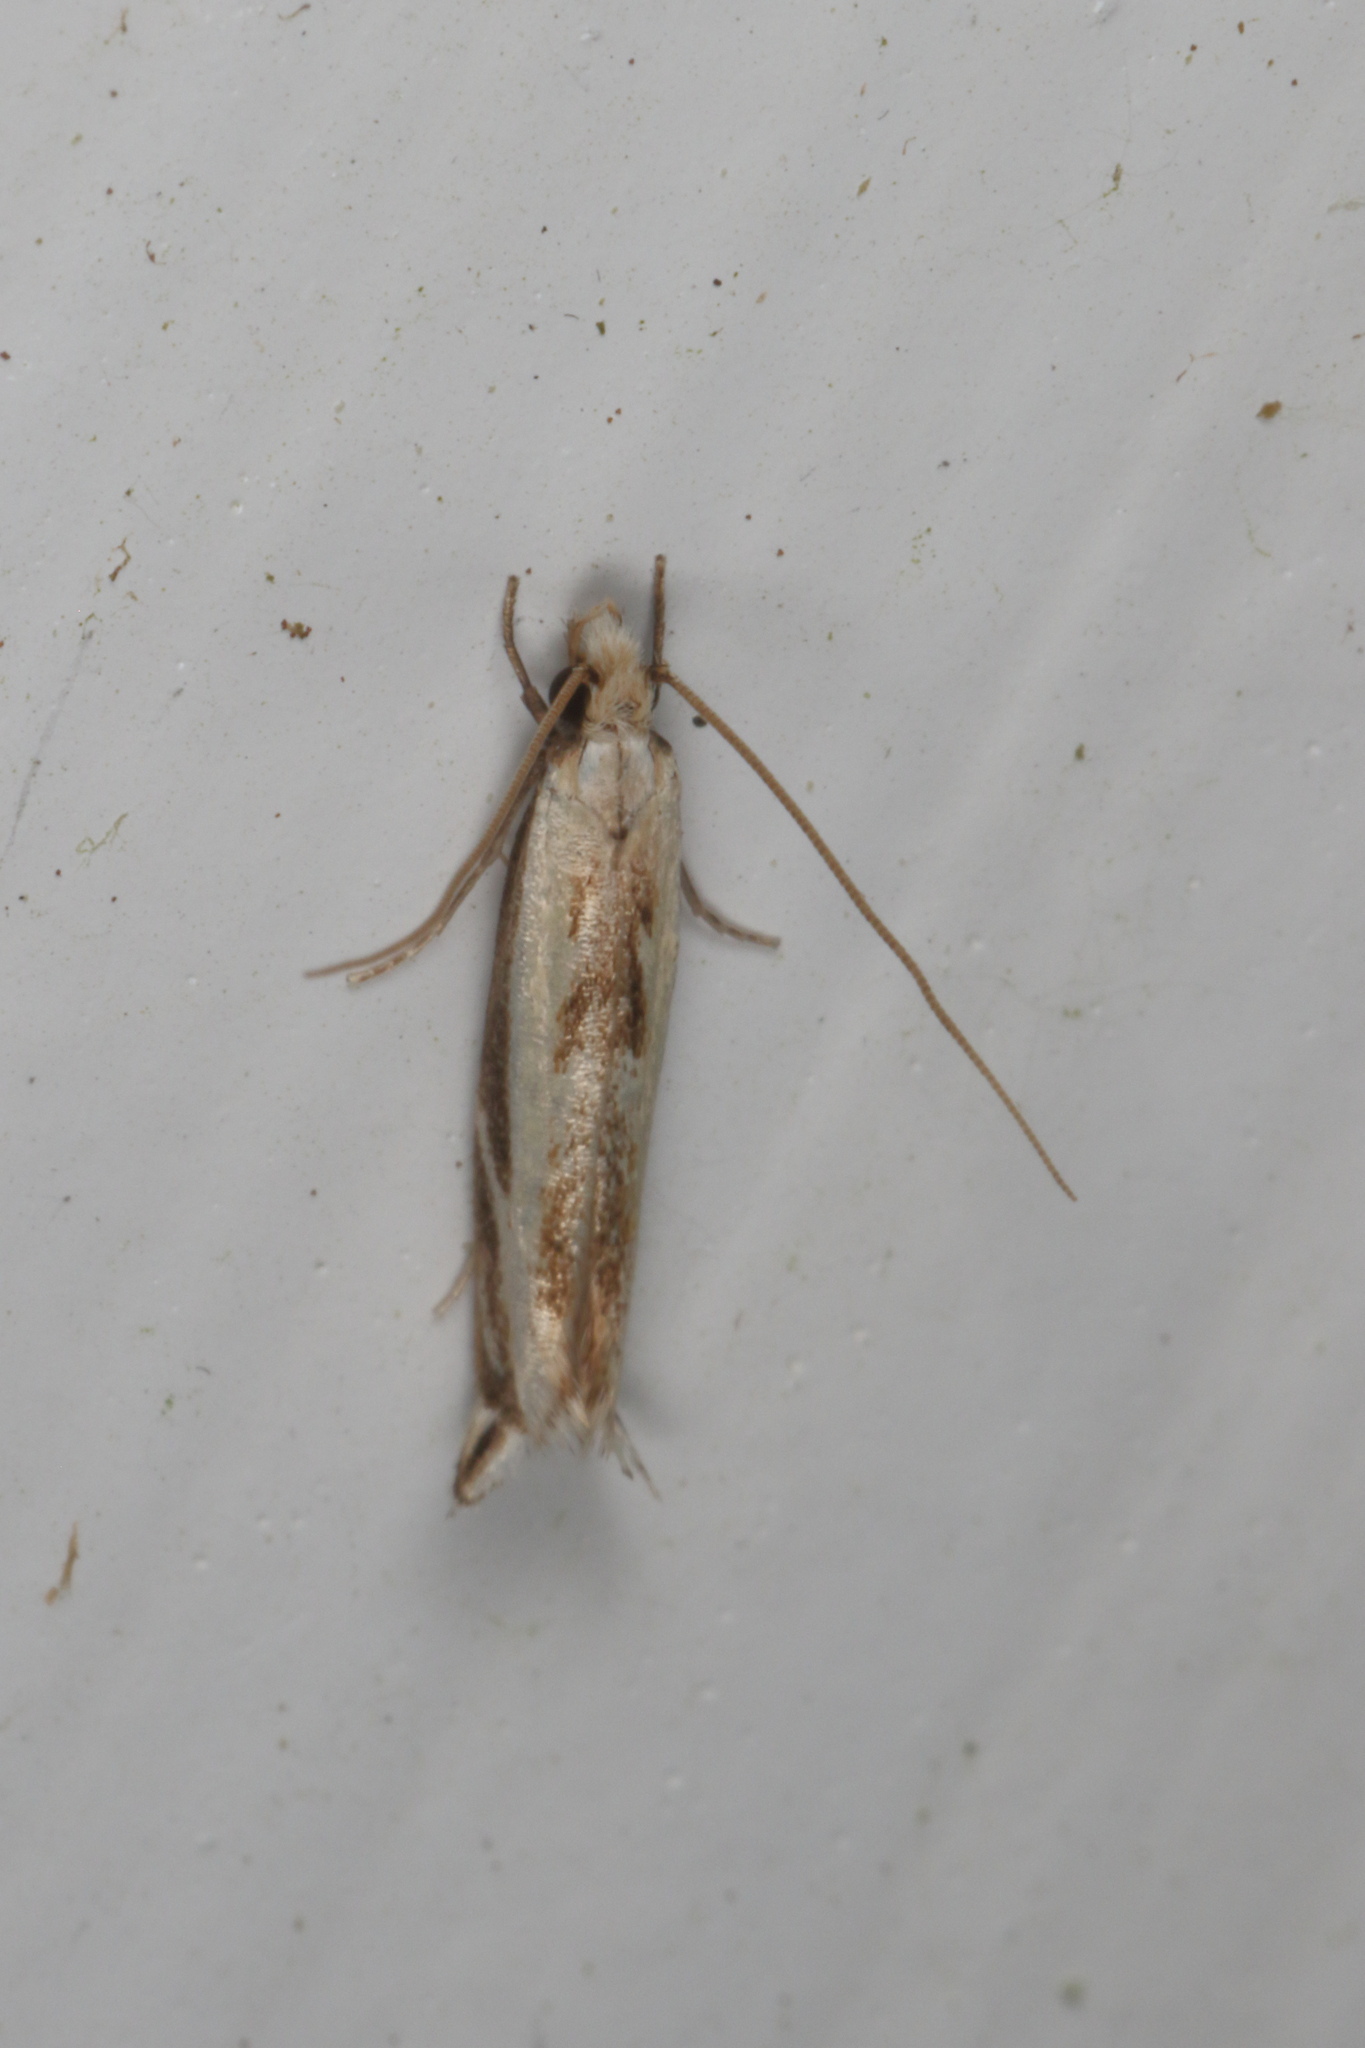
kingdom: Animalia
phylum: Arthropoda
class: Insecta
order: Lepidoptera
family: Tineidae
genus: Erechthias
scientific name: Erechthias terminella
